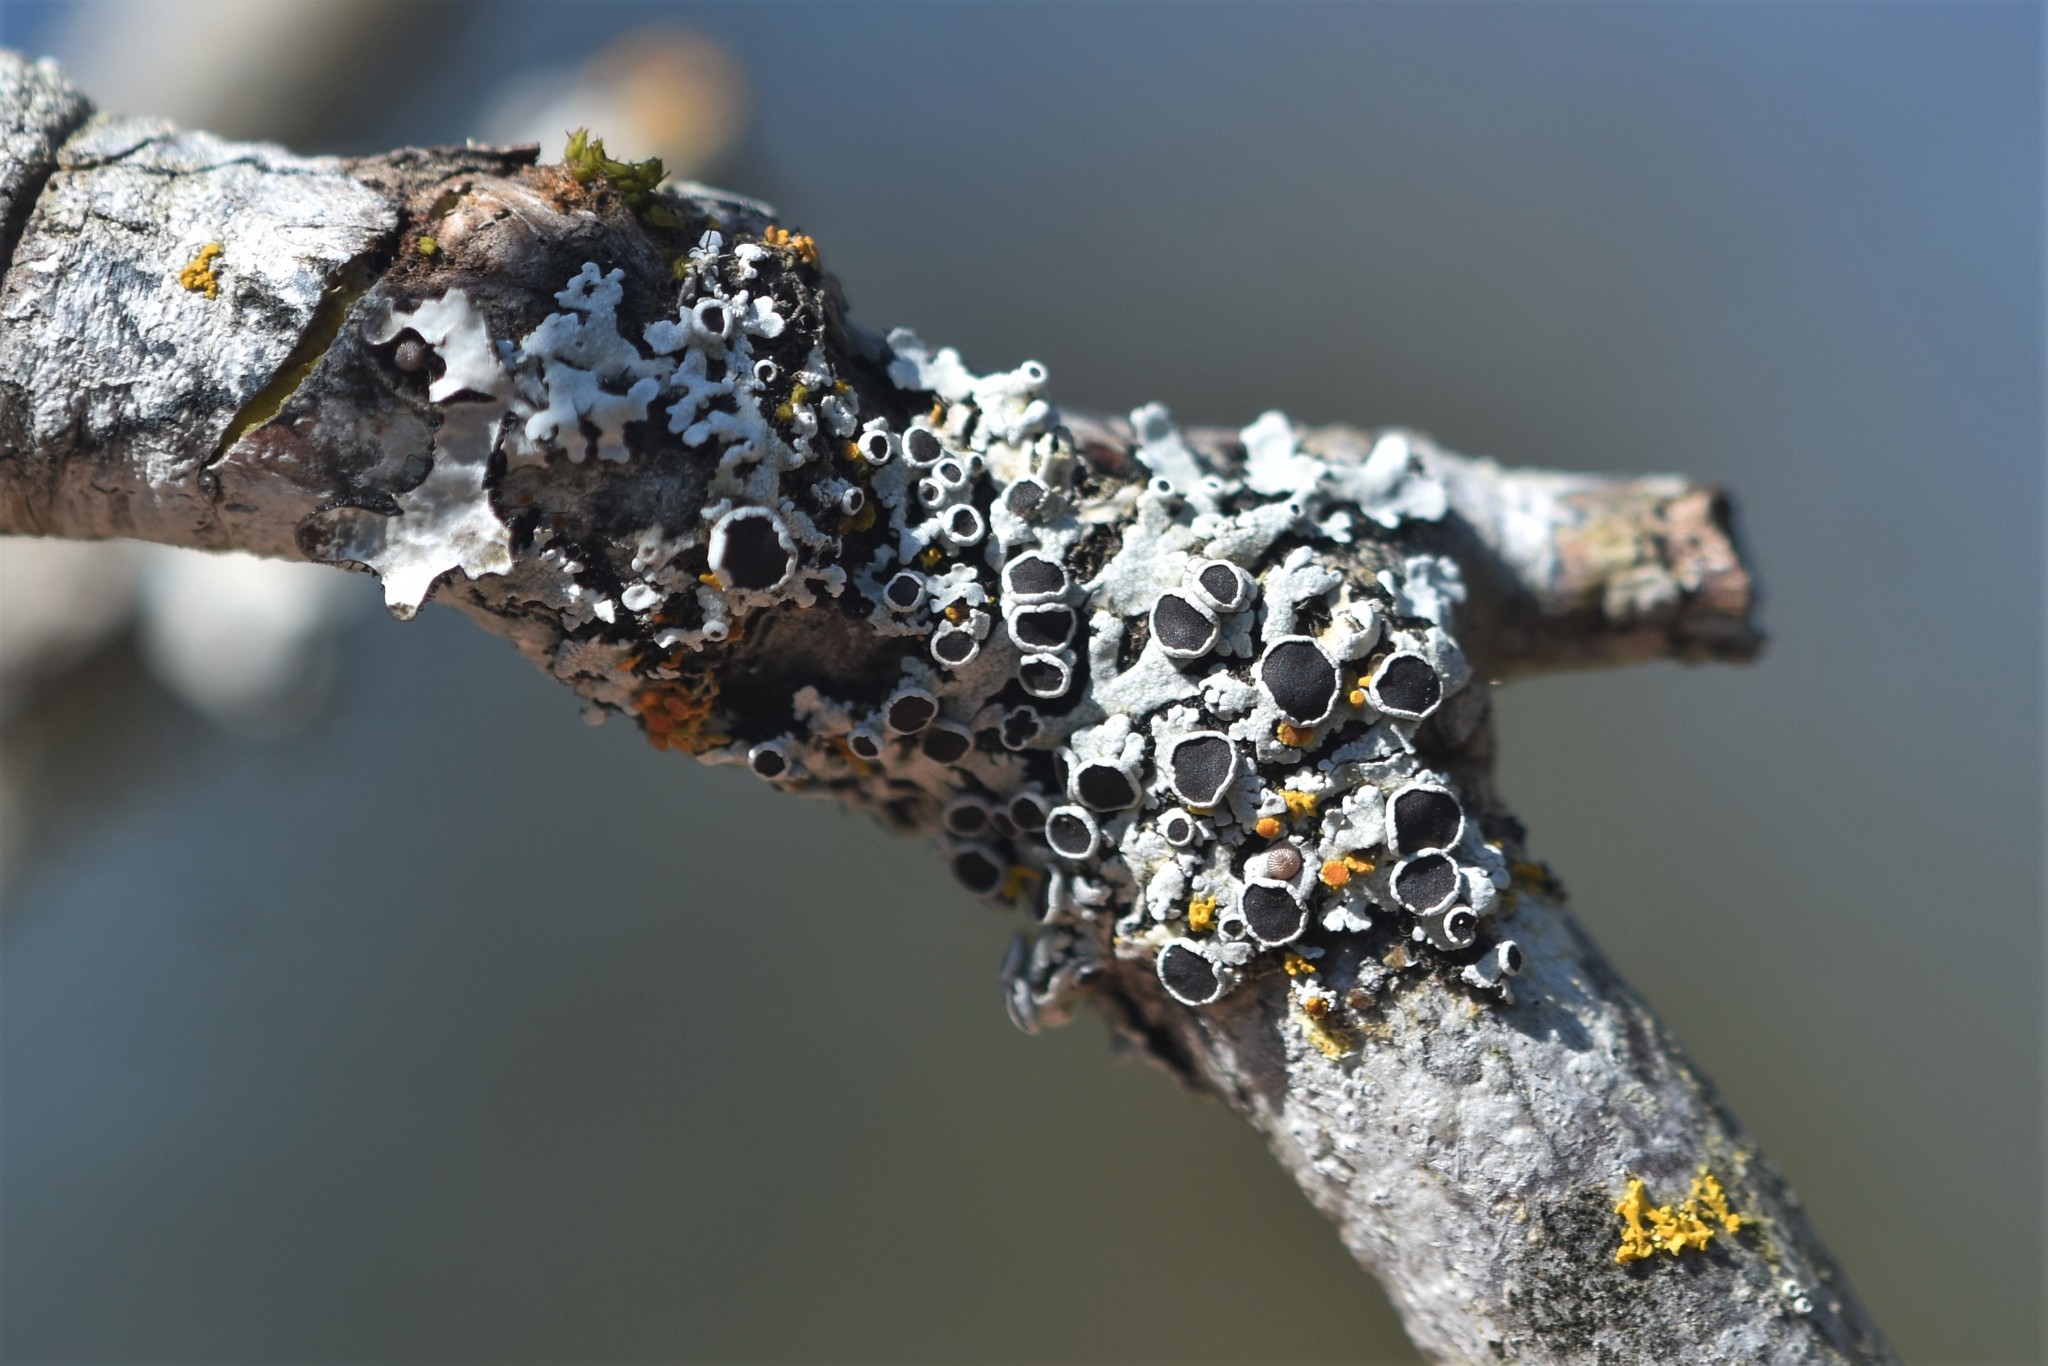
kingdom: Fungi
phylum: Ascomycota
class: Lecanoromycetes
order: Caliciales
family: Physciaceae
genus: Physcia
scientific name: Physcia aipolia
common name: Hoary rosette lichen
